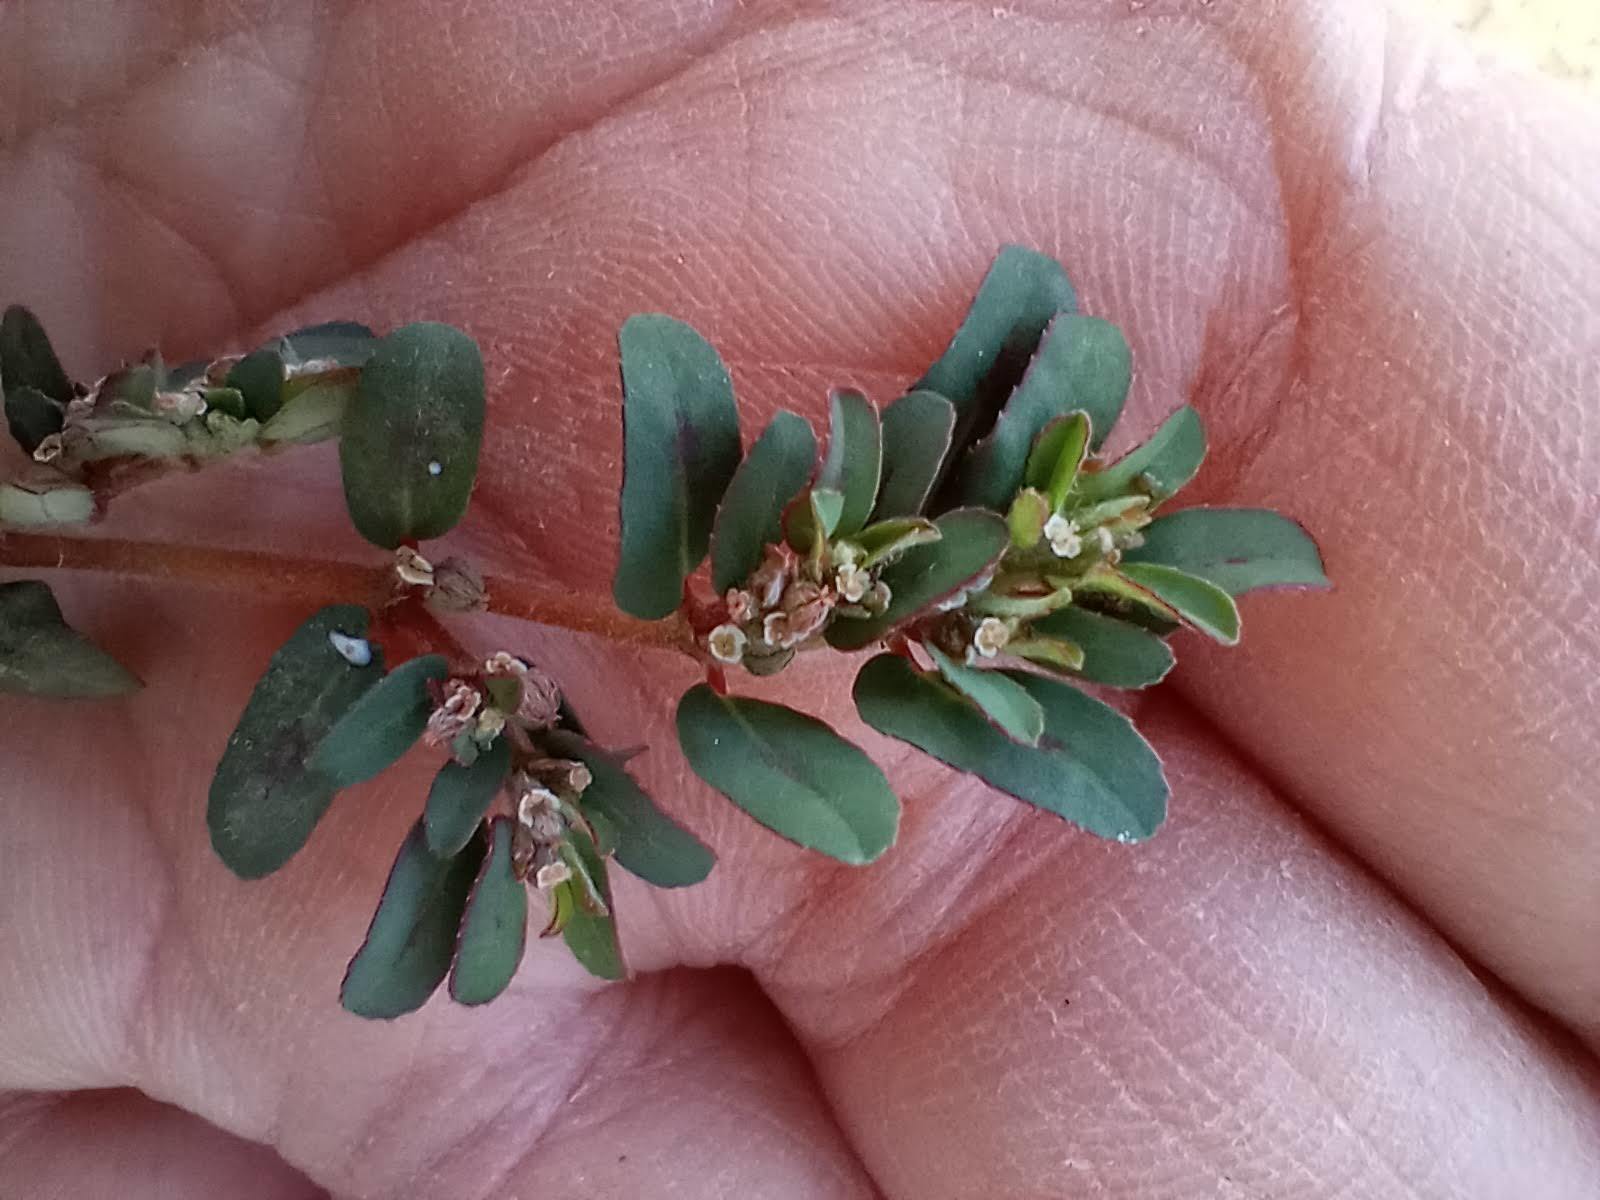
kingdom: Plantae
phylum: Tracheophyta
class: Magnoliopsida
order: Malpighiales
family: Euphorbiaceae
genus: Euphorbia
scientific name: Euphorbia maculata
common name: Spotted spurge
